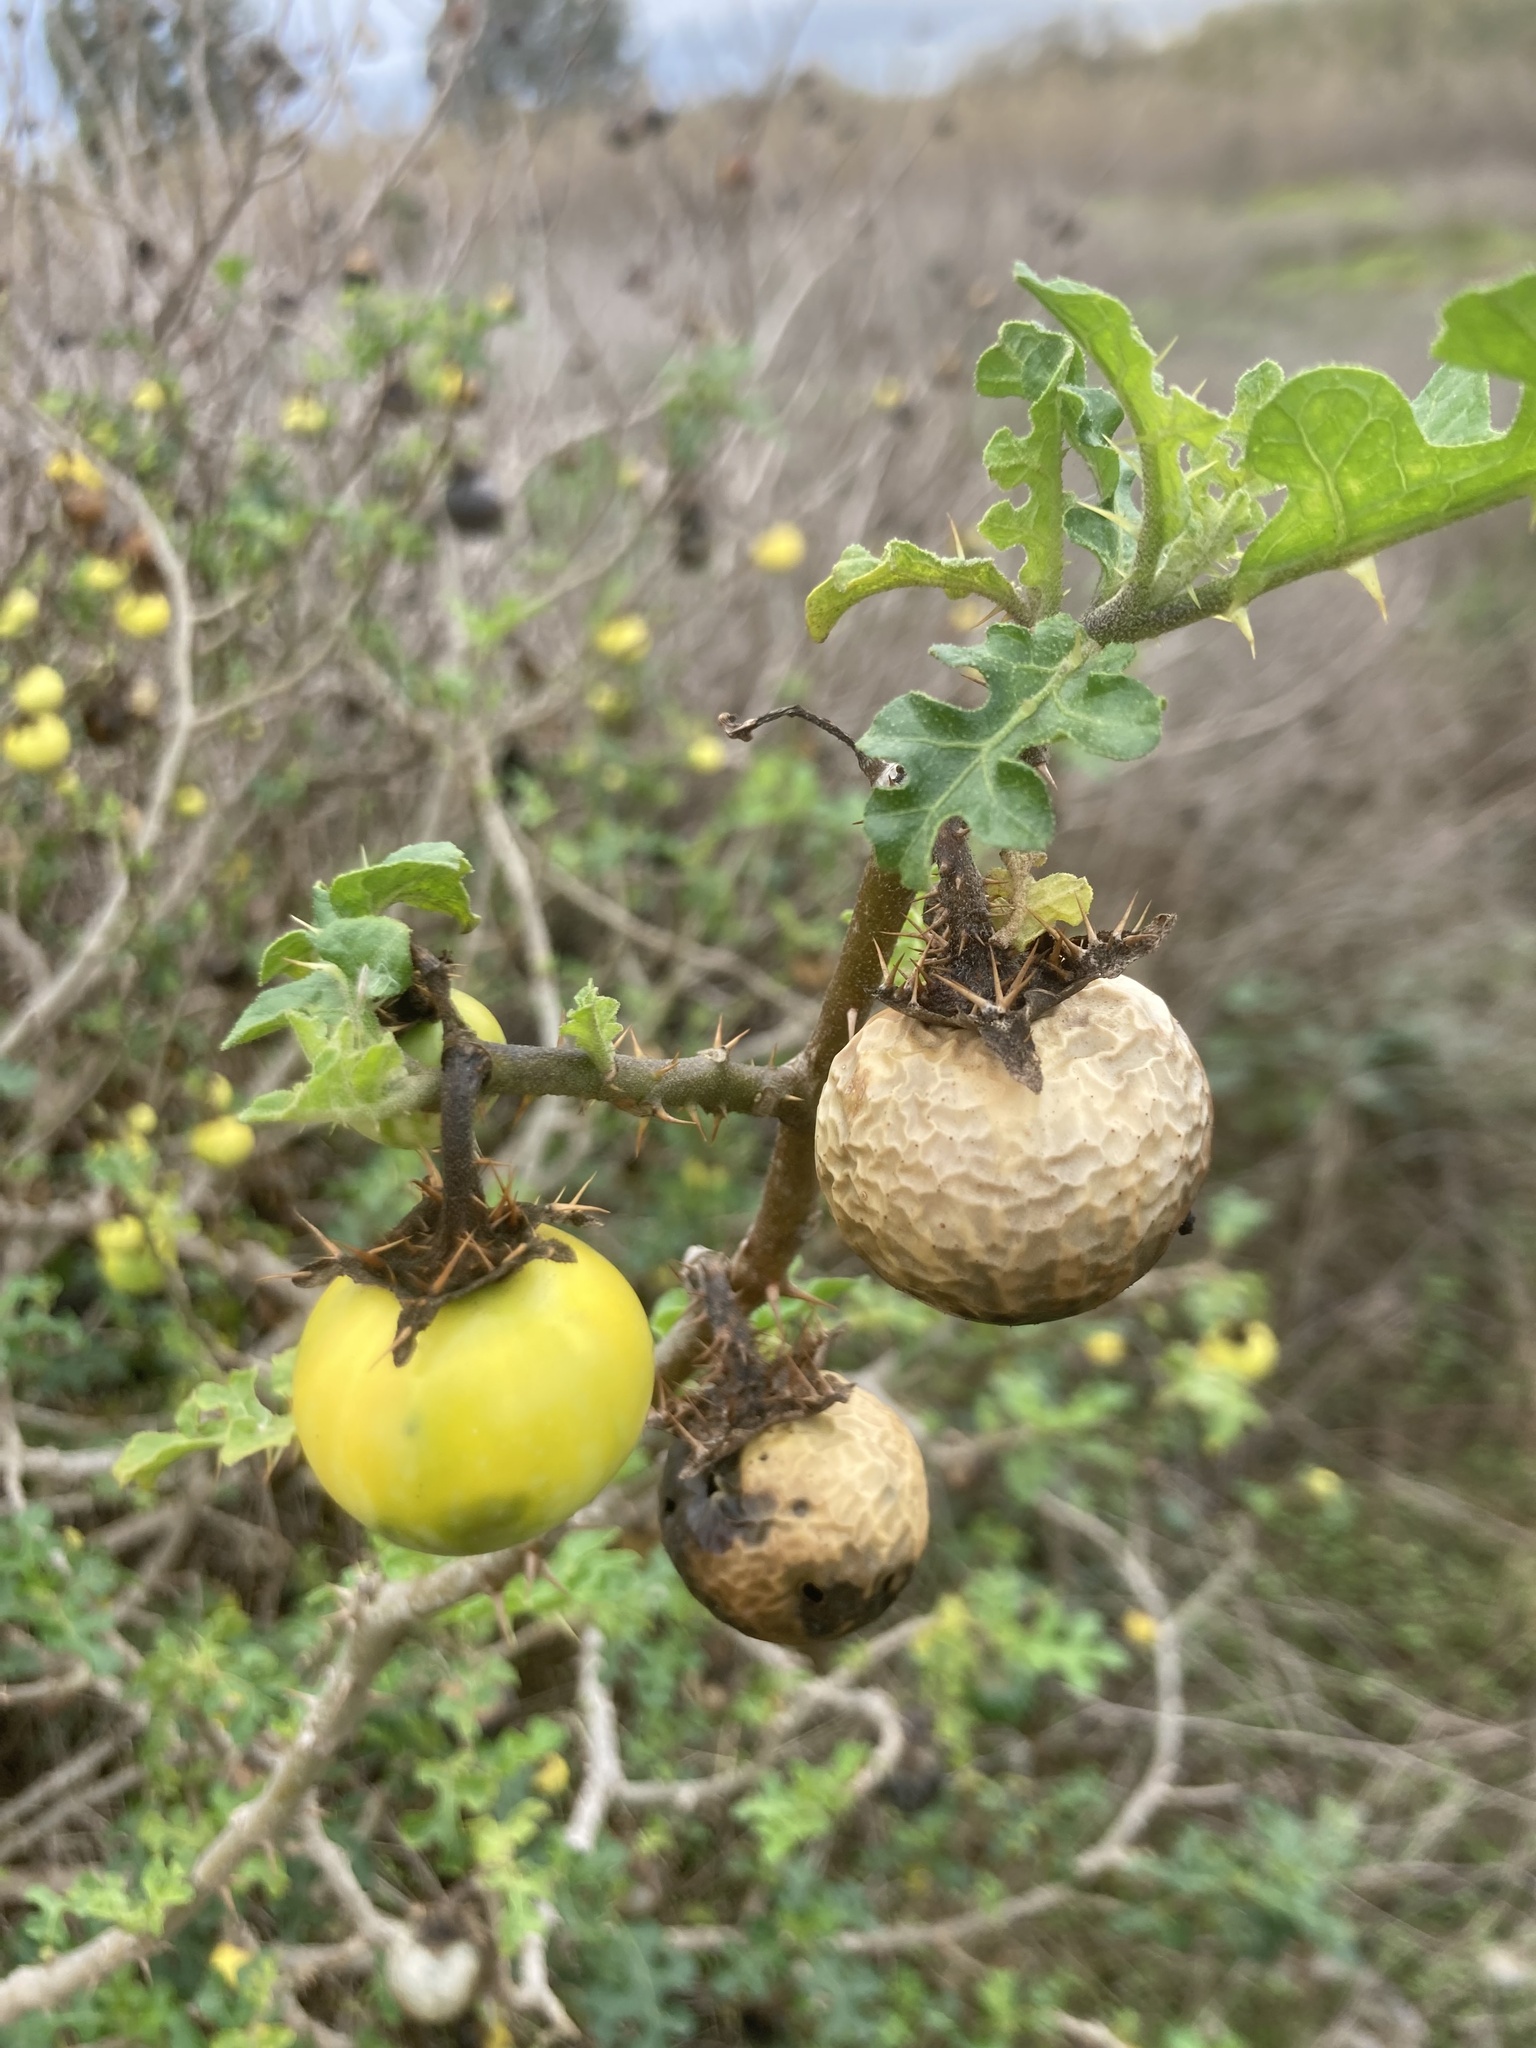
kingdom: Plantae
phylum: Tracheophyta
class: Magnoliopsida
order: Solanales
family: Solanaceae
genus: Solanum
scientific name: Solanum linnaeanum
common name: Nightshade
